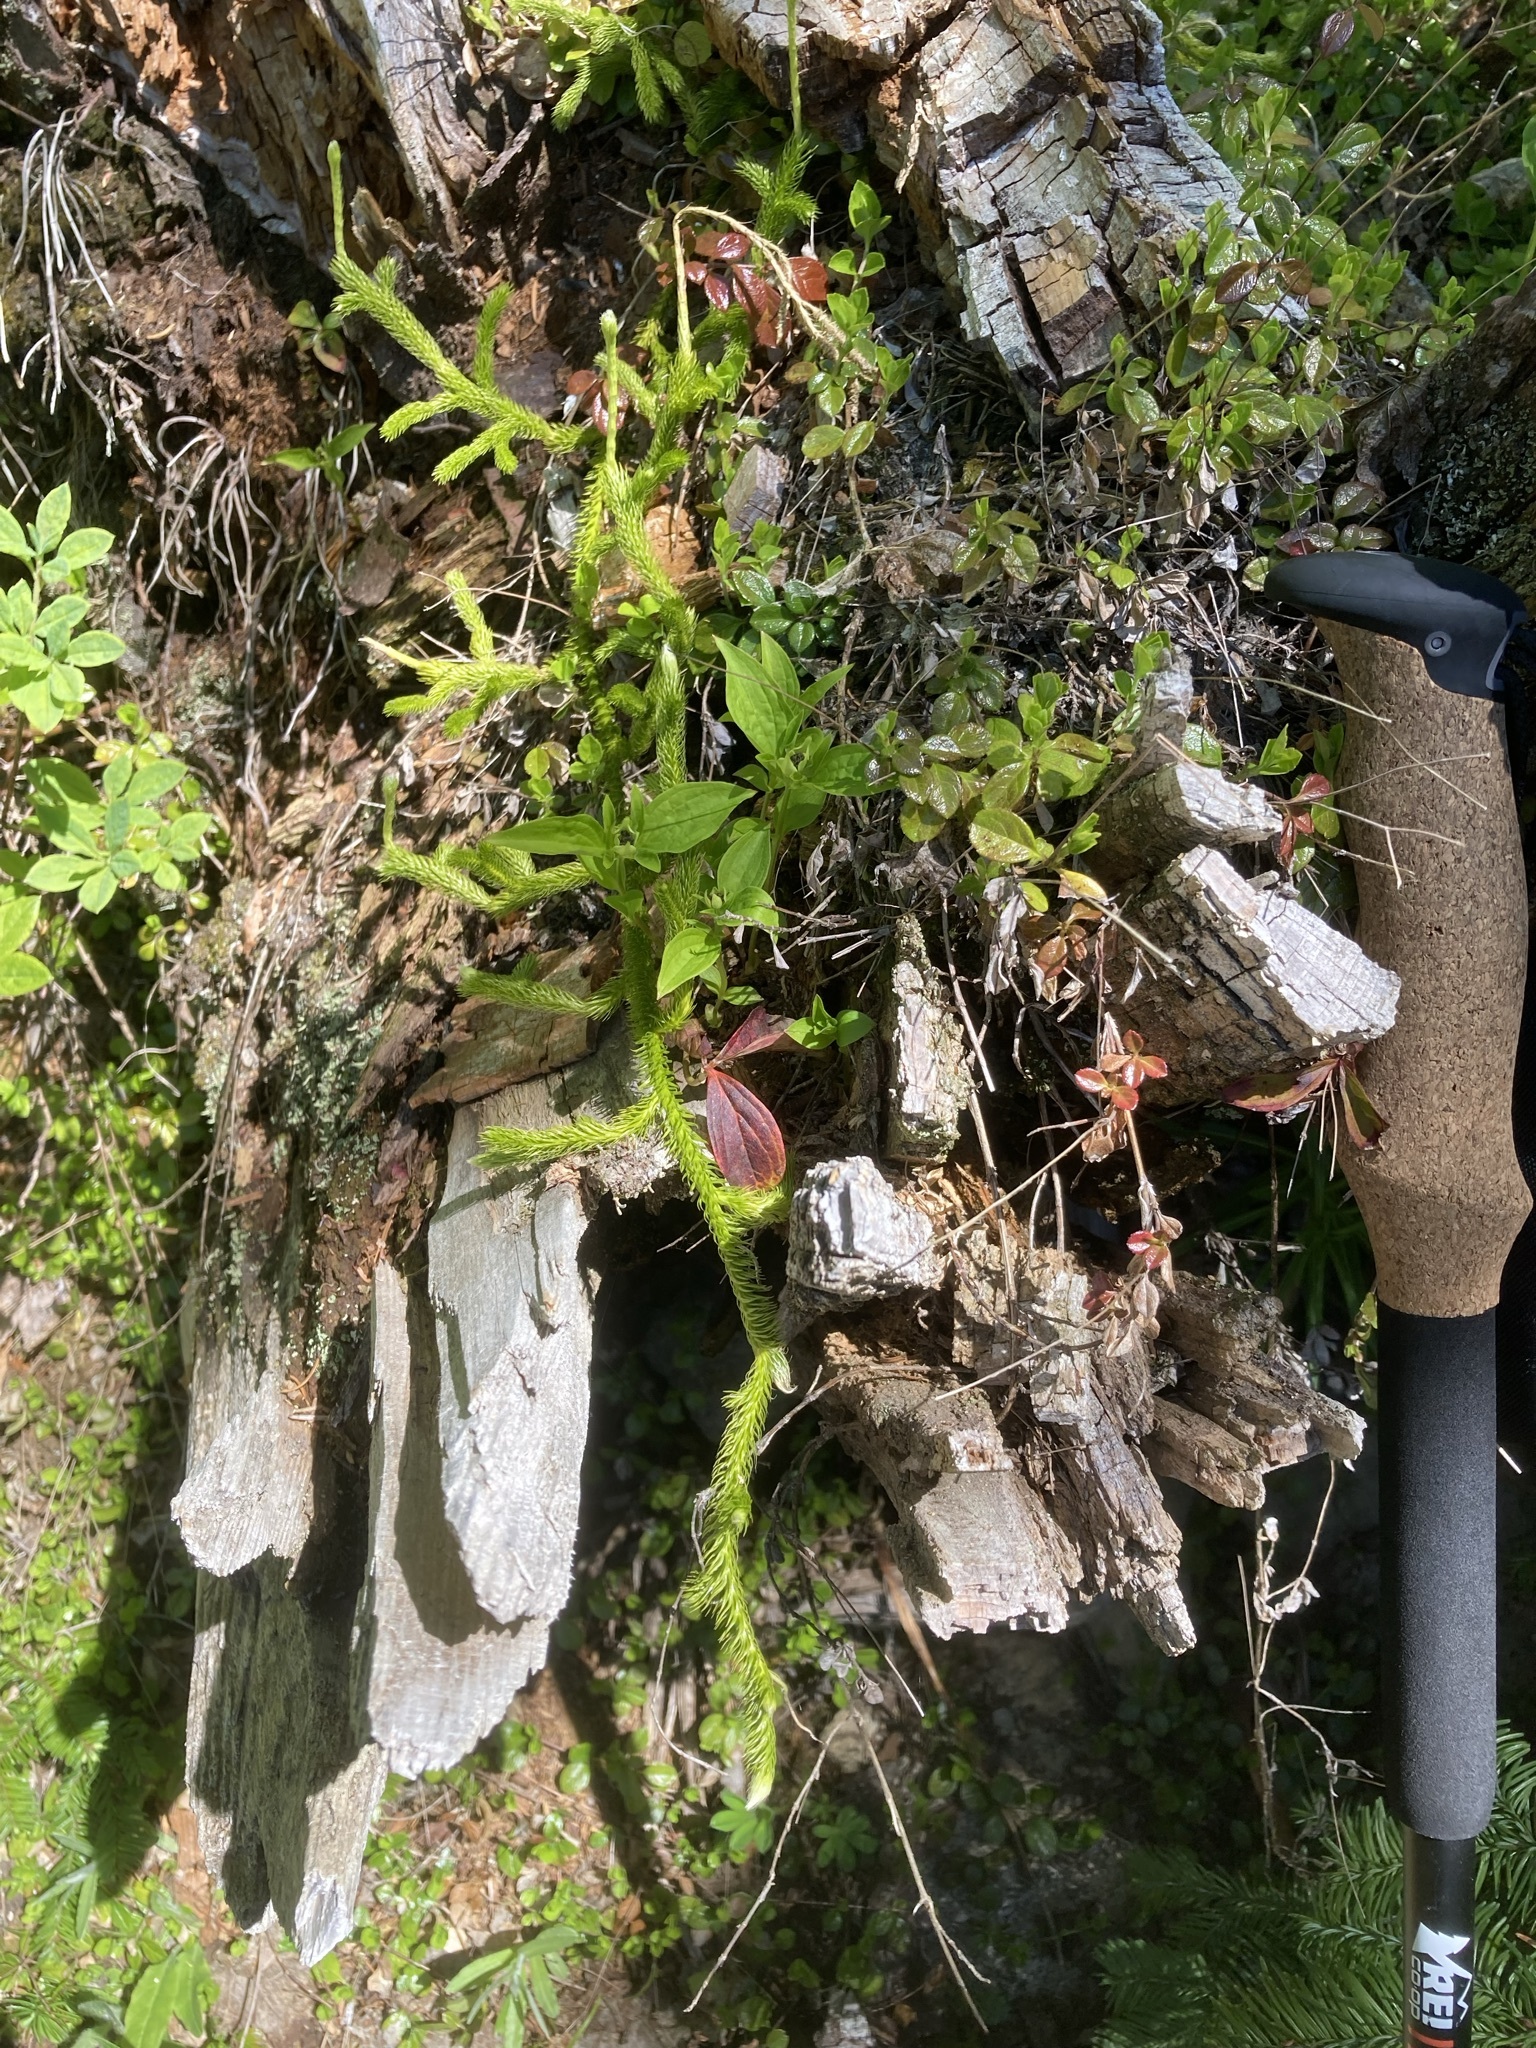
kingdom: Plantae
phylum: Tracheophyta
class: Lycopodiopsida
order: Lycopodiales
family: Lycopodiaceae
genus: Lycopodium
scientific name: Lycopodium clavatum
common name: Stag's-horn clubmoss
